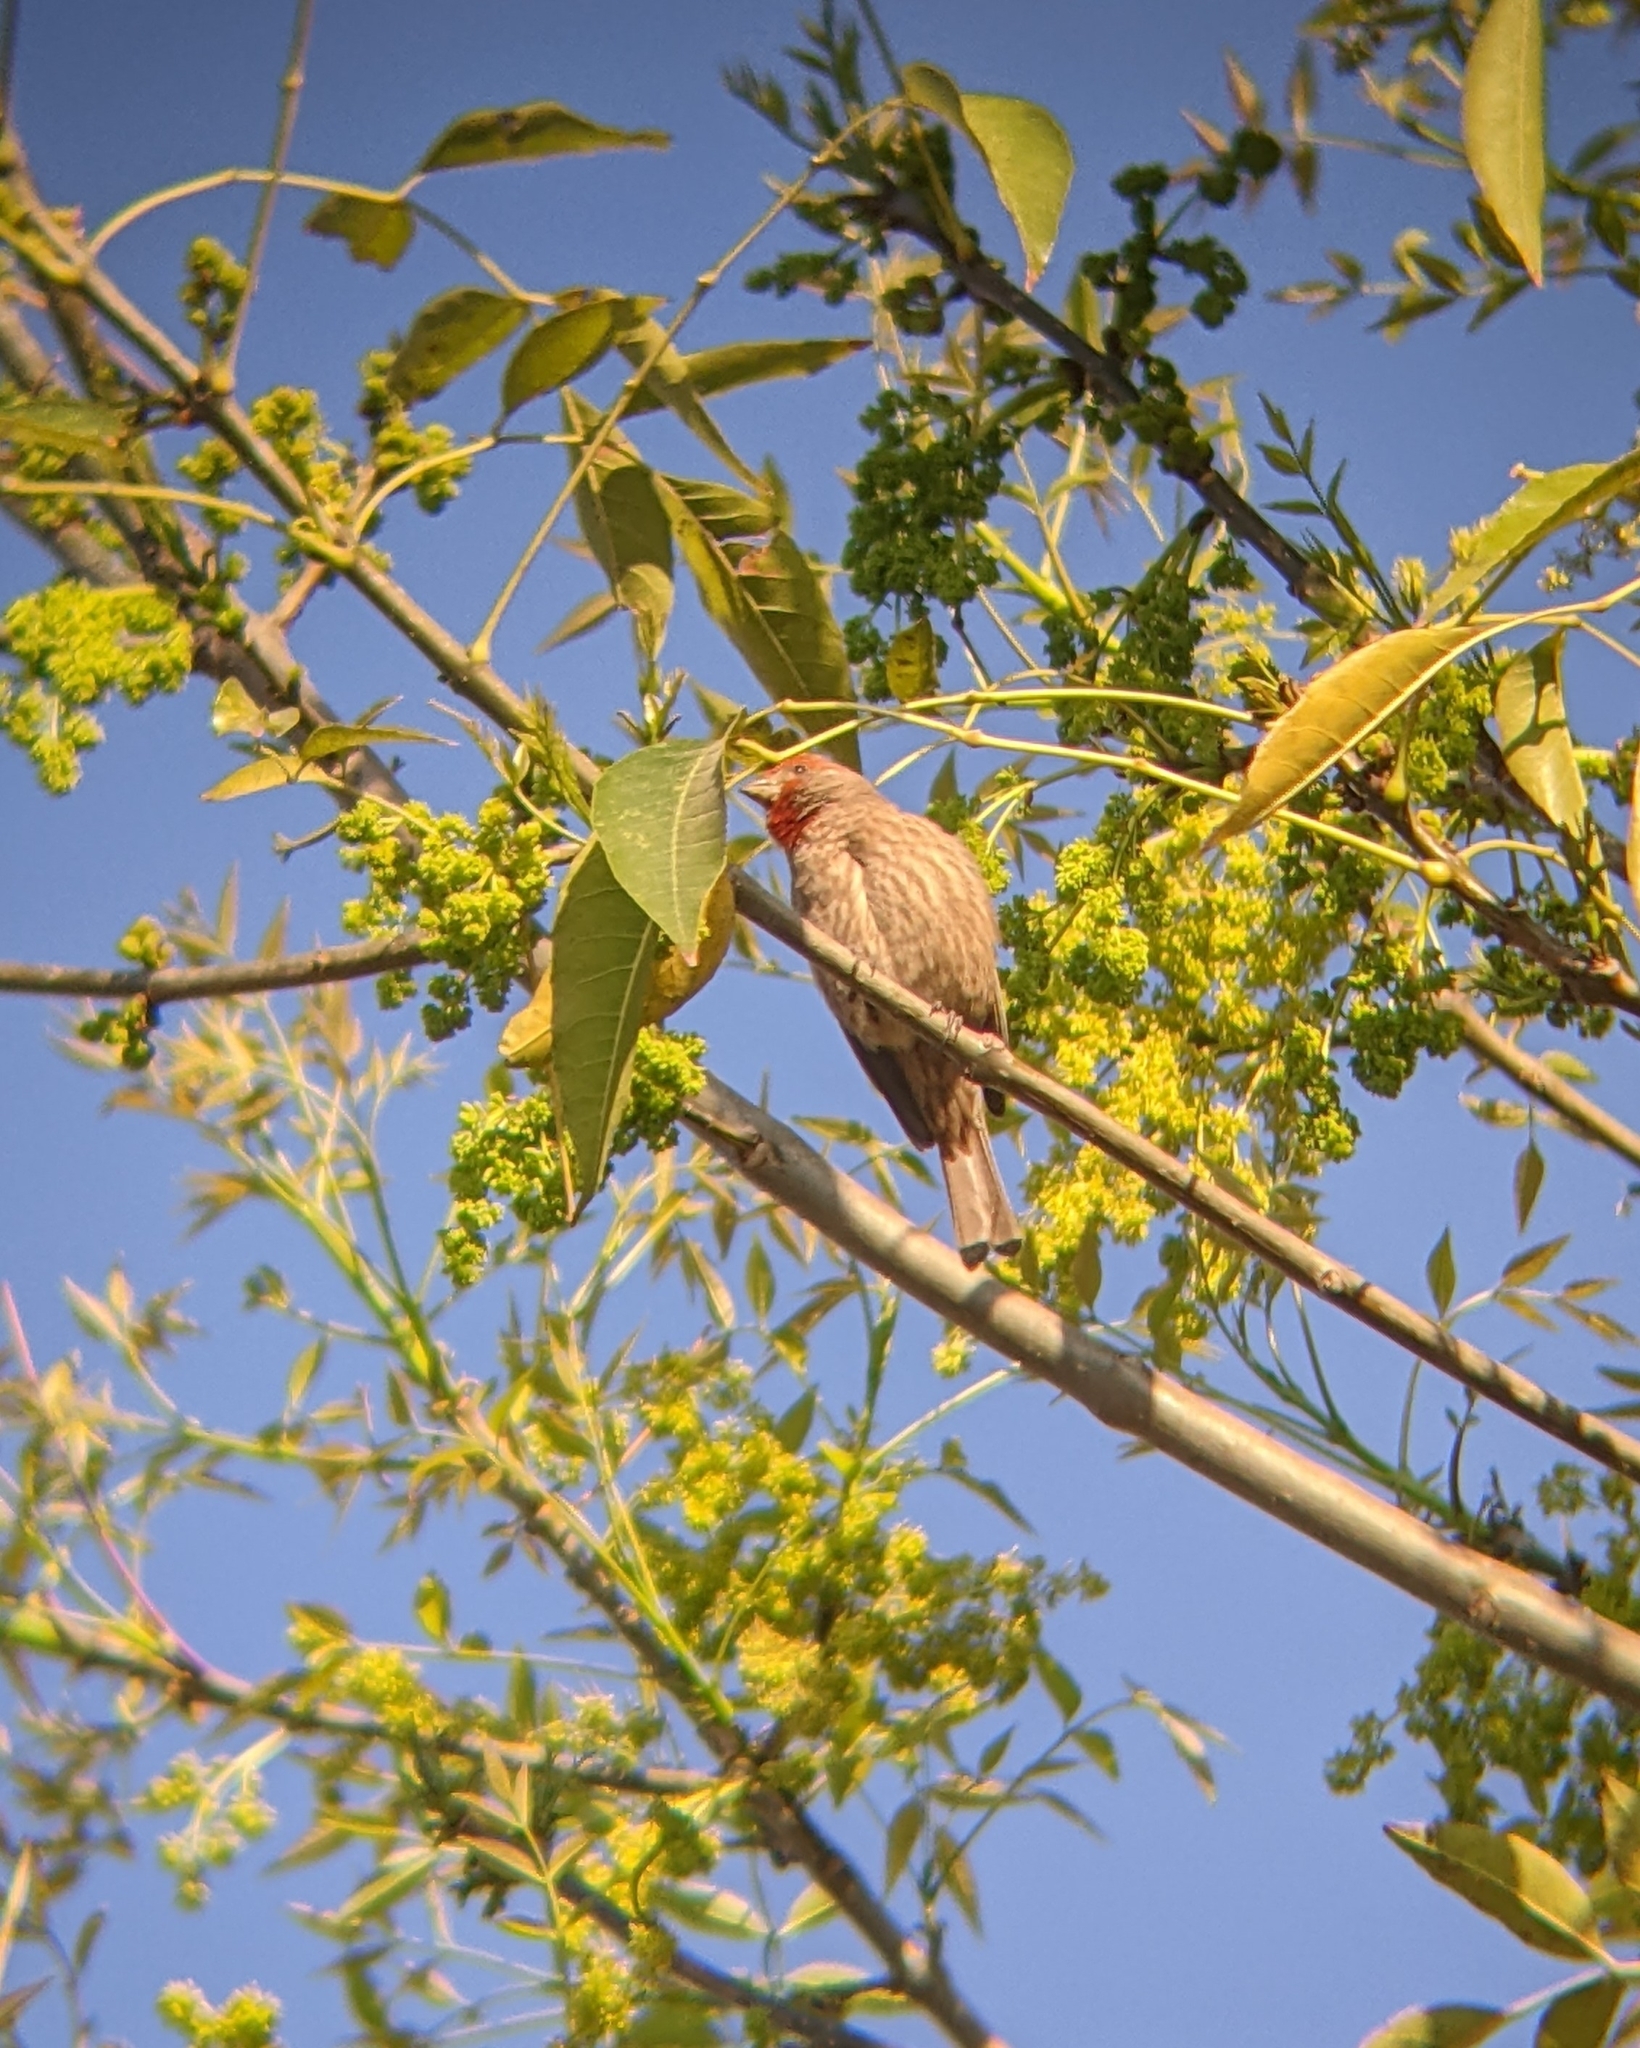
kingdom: Animalia
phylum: Chordata
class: Aves
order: Passeriformes
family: Fringillidae
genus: Haemorhous
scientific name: Haemorhous mexicanus
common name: House finch
